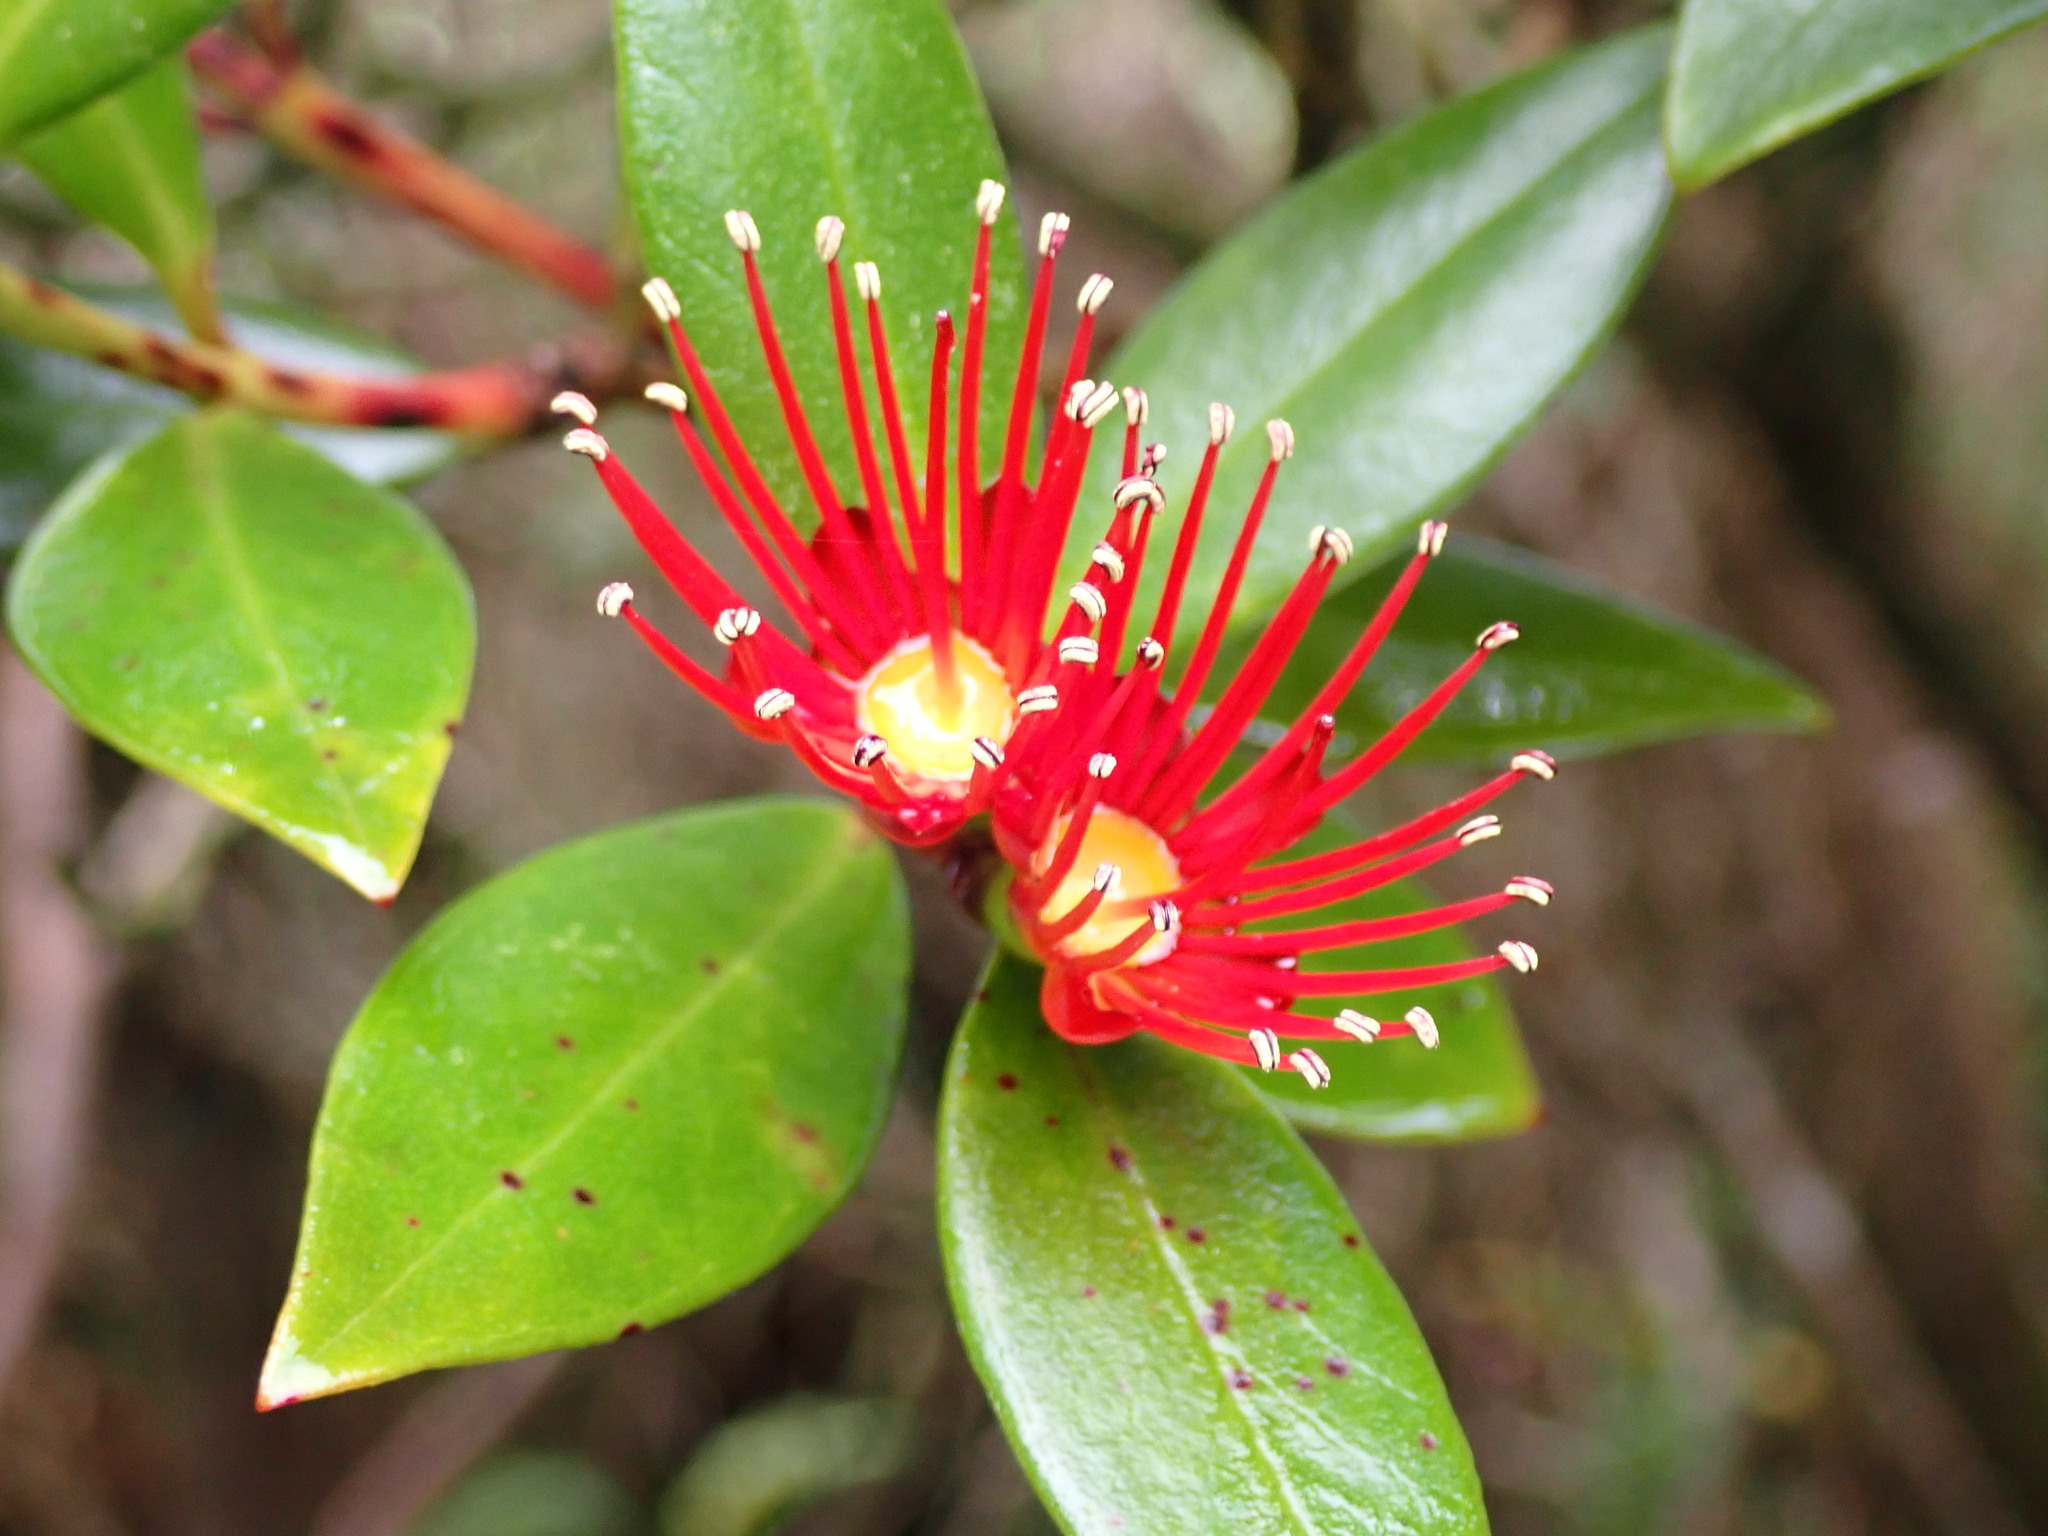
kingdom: Plantae
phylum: Tracheophyta
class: Magnoliopsida
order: Myrtales
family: Myrtaceae
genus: Metrosideros
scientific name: Metrosideros umbellata
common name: Southern rata
